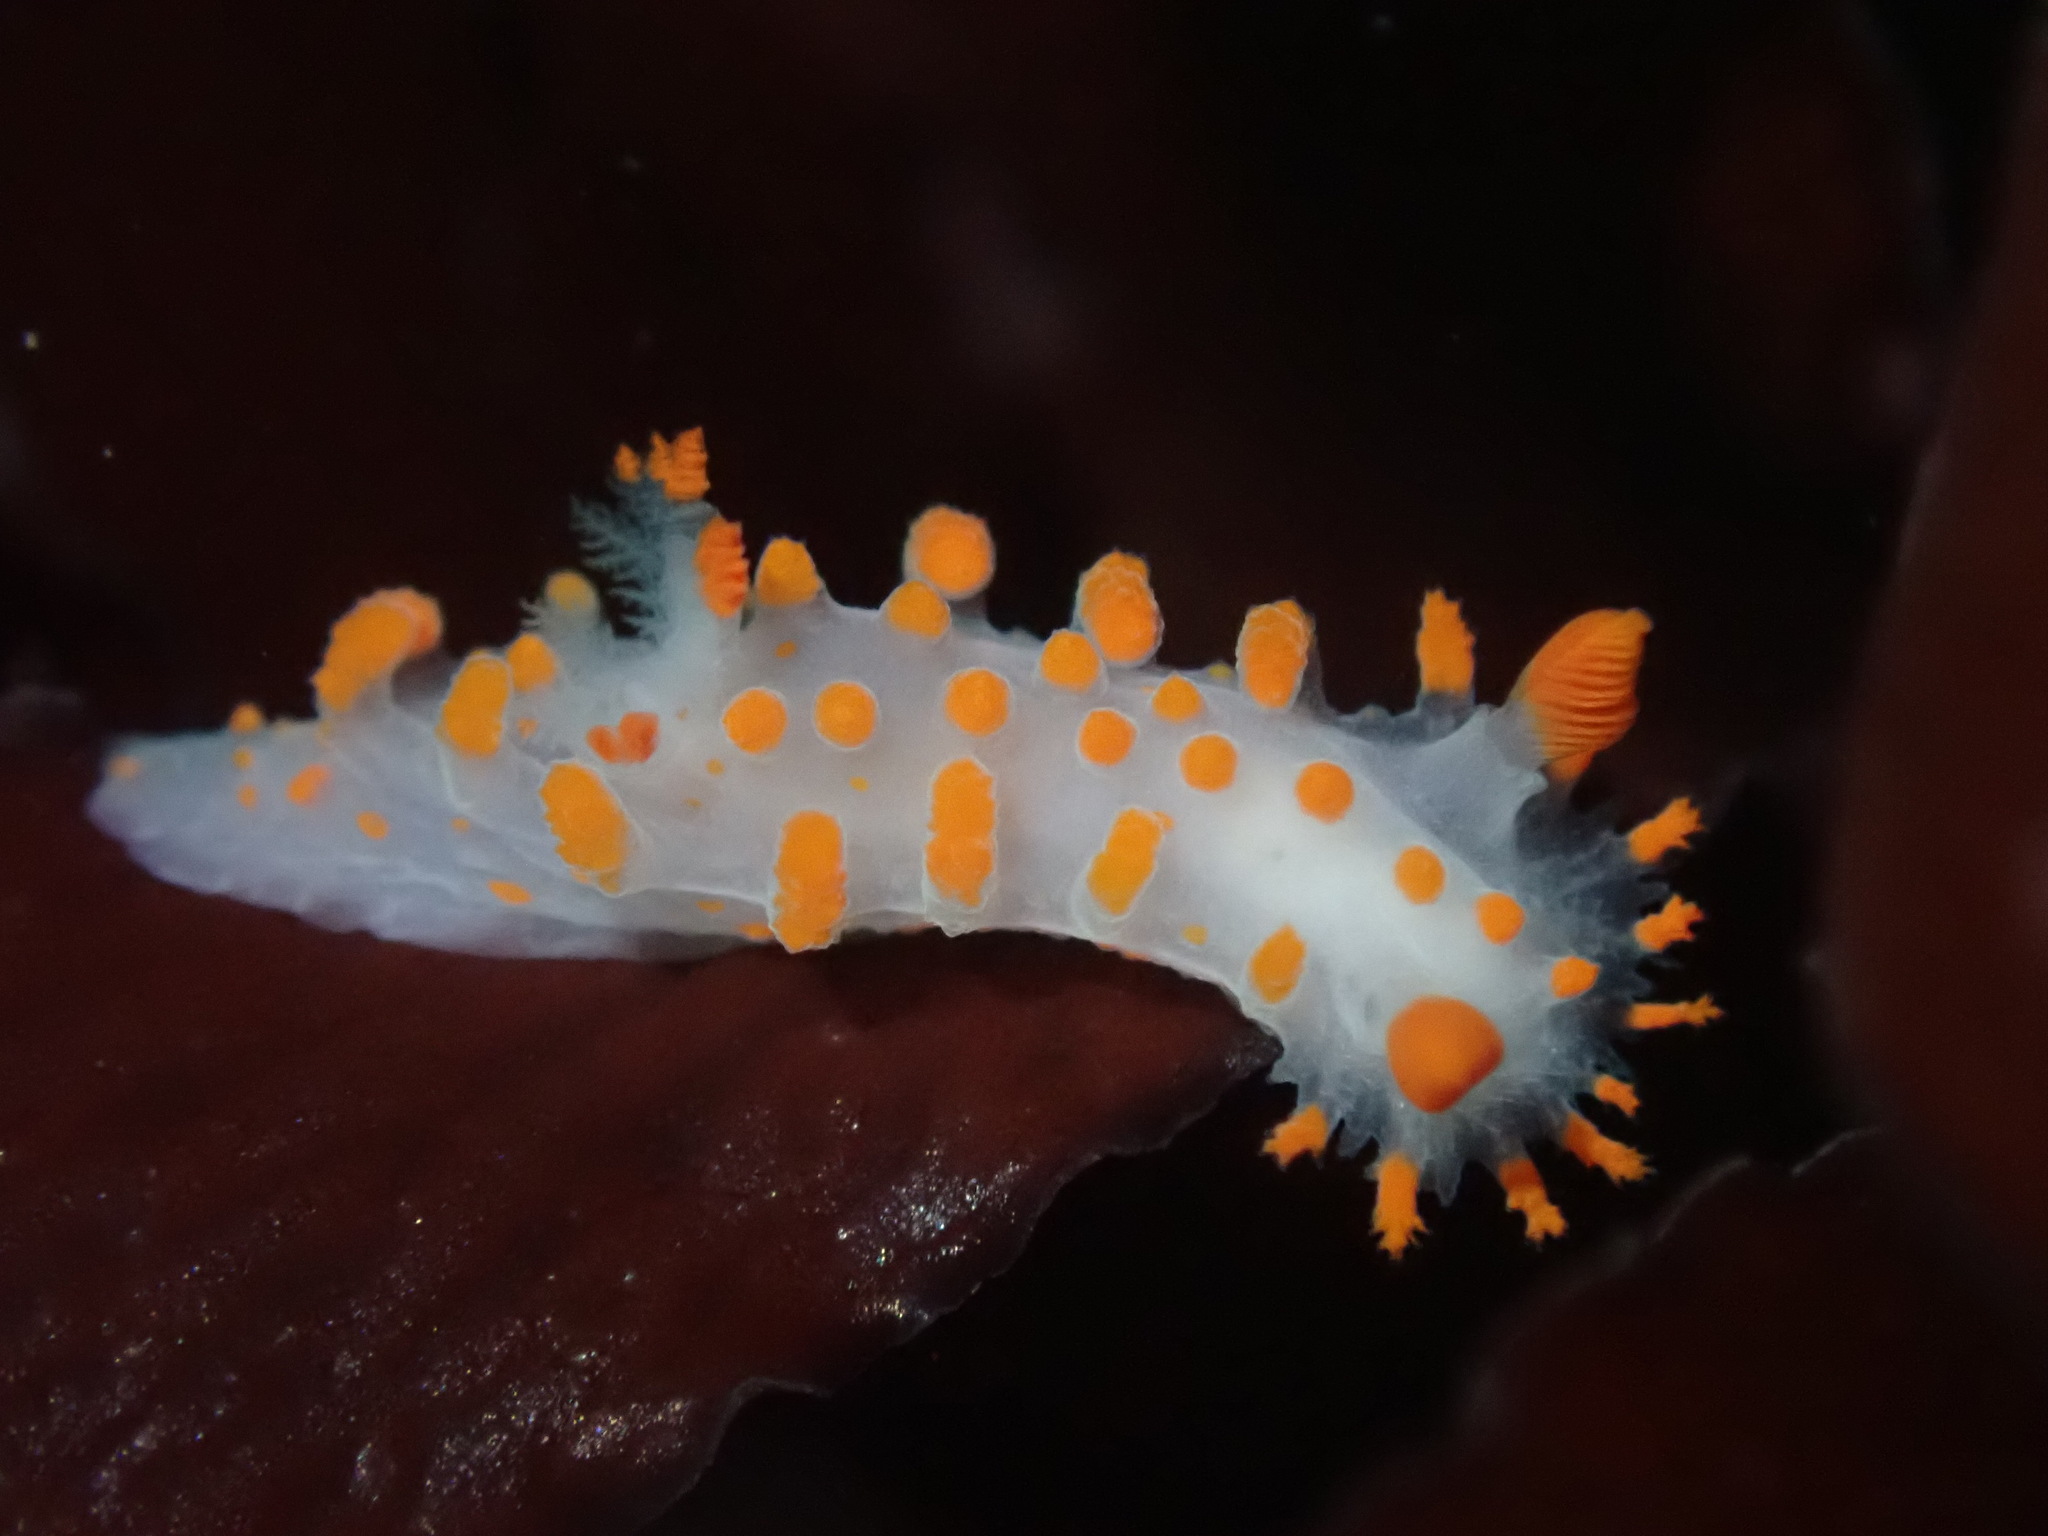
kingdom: Animalia
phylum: Mollusca
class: Gastropoda
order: Nudibranchia
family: Polyceridae
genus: Triopha
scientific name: Triopha catalinae
